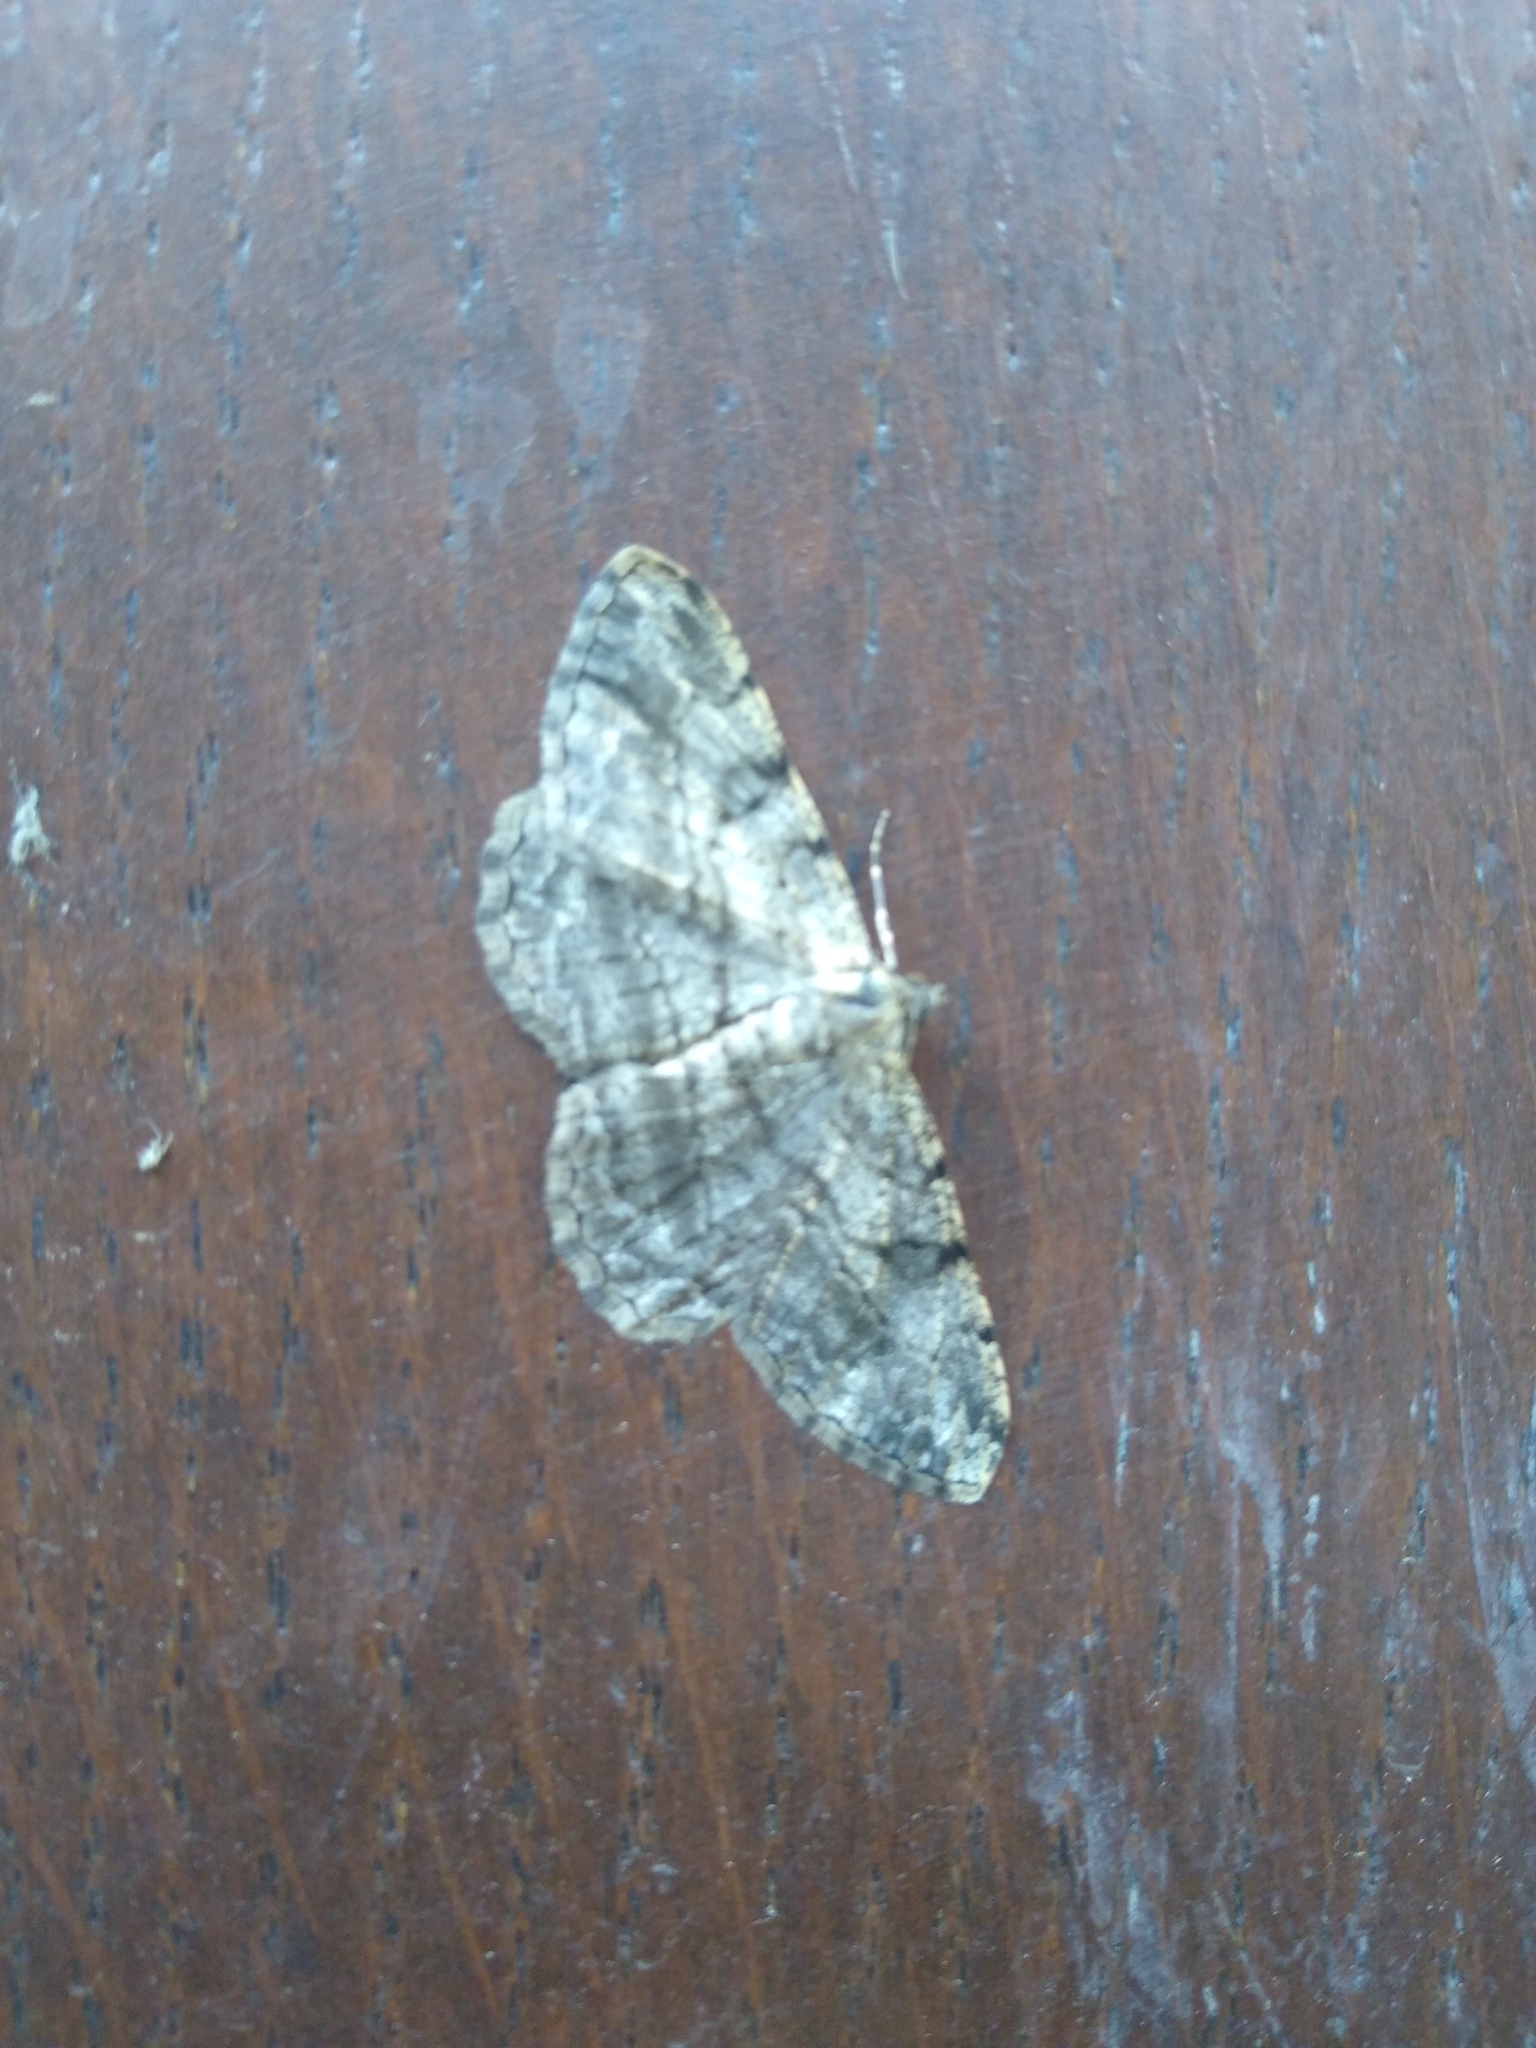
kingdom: Animalia
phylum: Arthropoda
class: Insecta
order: Lepidoptera
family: Geometridae
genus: Peribatodes
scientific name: Peribatodes rhomboidaria
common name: Willow beauty
